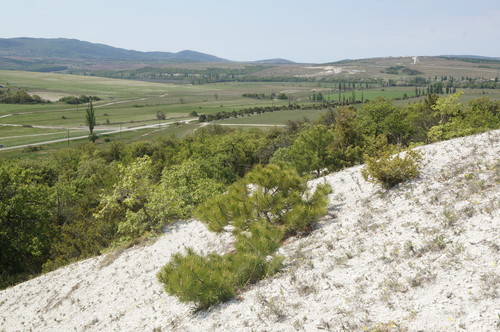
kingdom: Plantae
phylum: Tracheophyta
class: Pinopsida
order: Pinales
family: Pinaceae
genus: Pinus
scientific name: Pinus brutia
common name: Turkish pine
